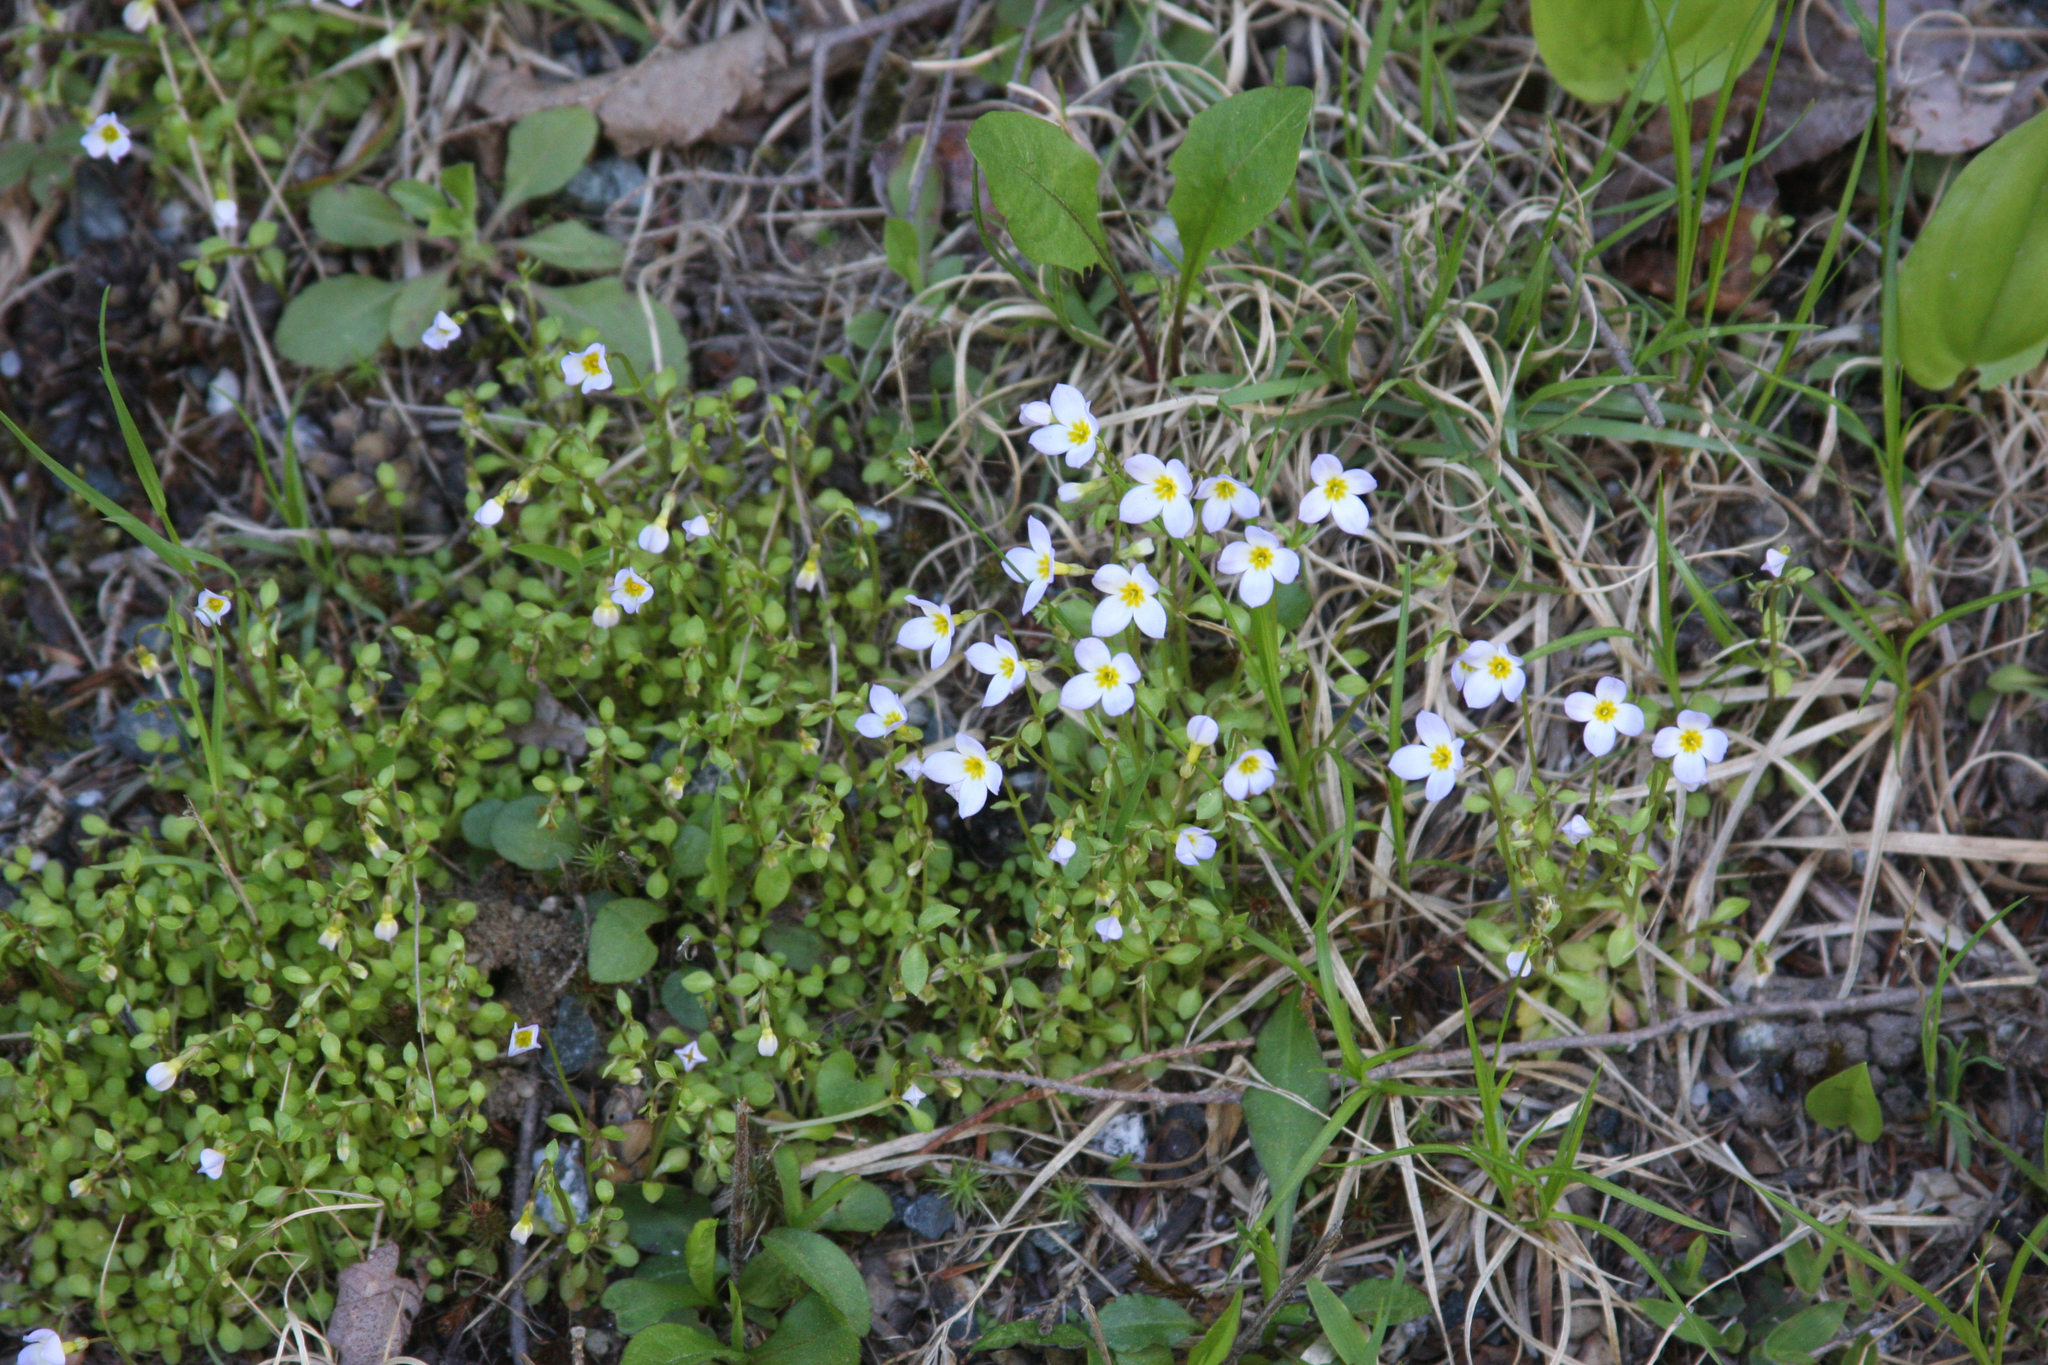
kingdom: Plantae
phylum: Tracheophyta
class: Magnoliopsida
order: Gentianales
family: Rubiaceae
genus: Houstonia
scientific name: Houstonia caerulea
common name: Bluets
